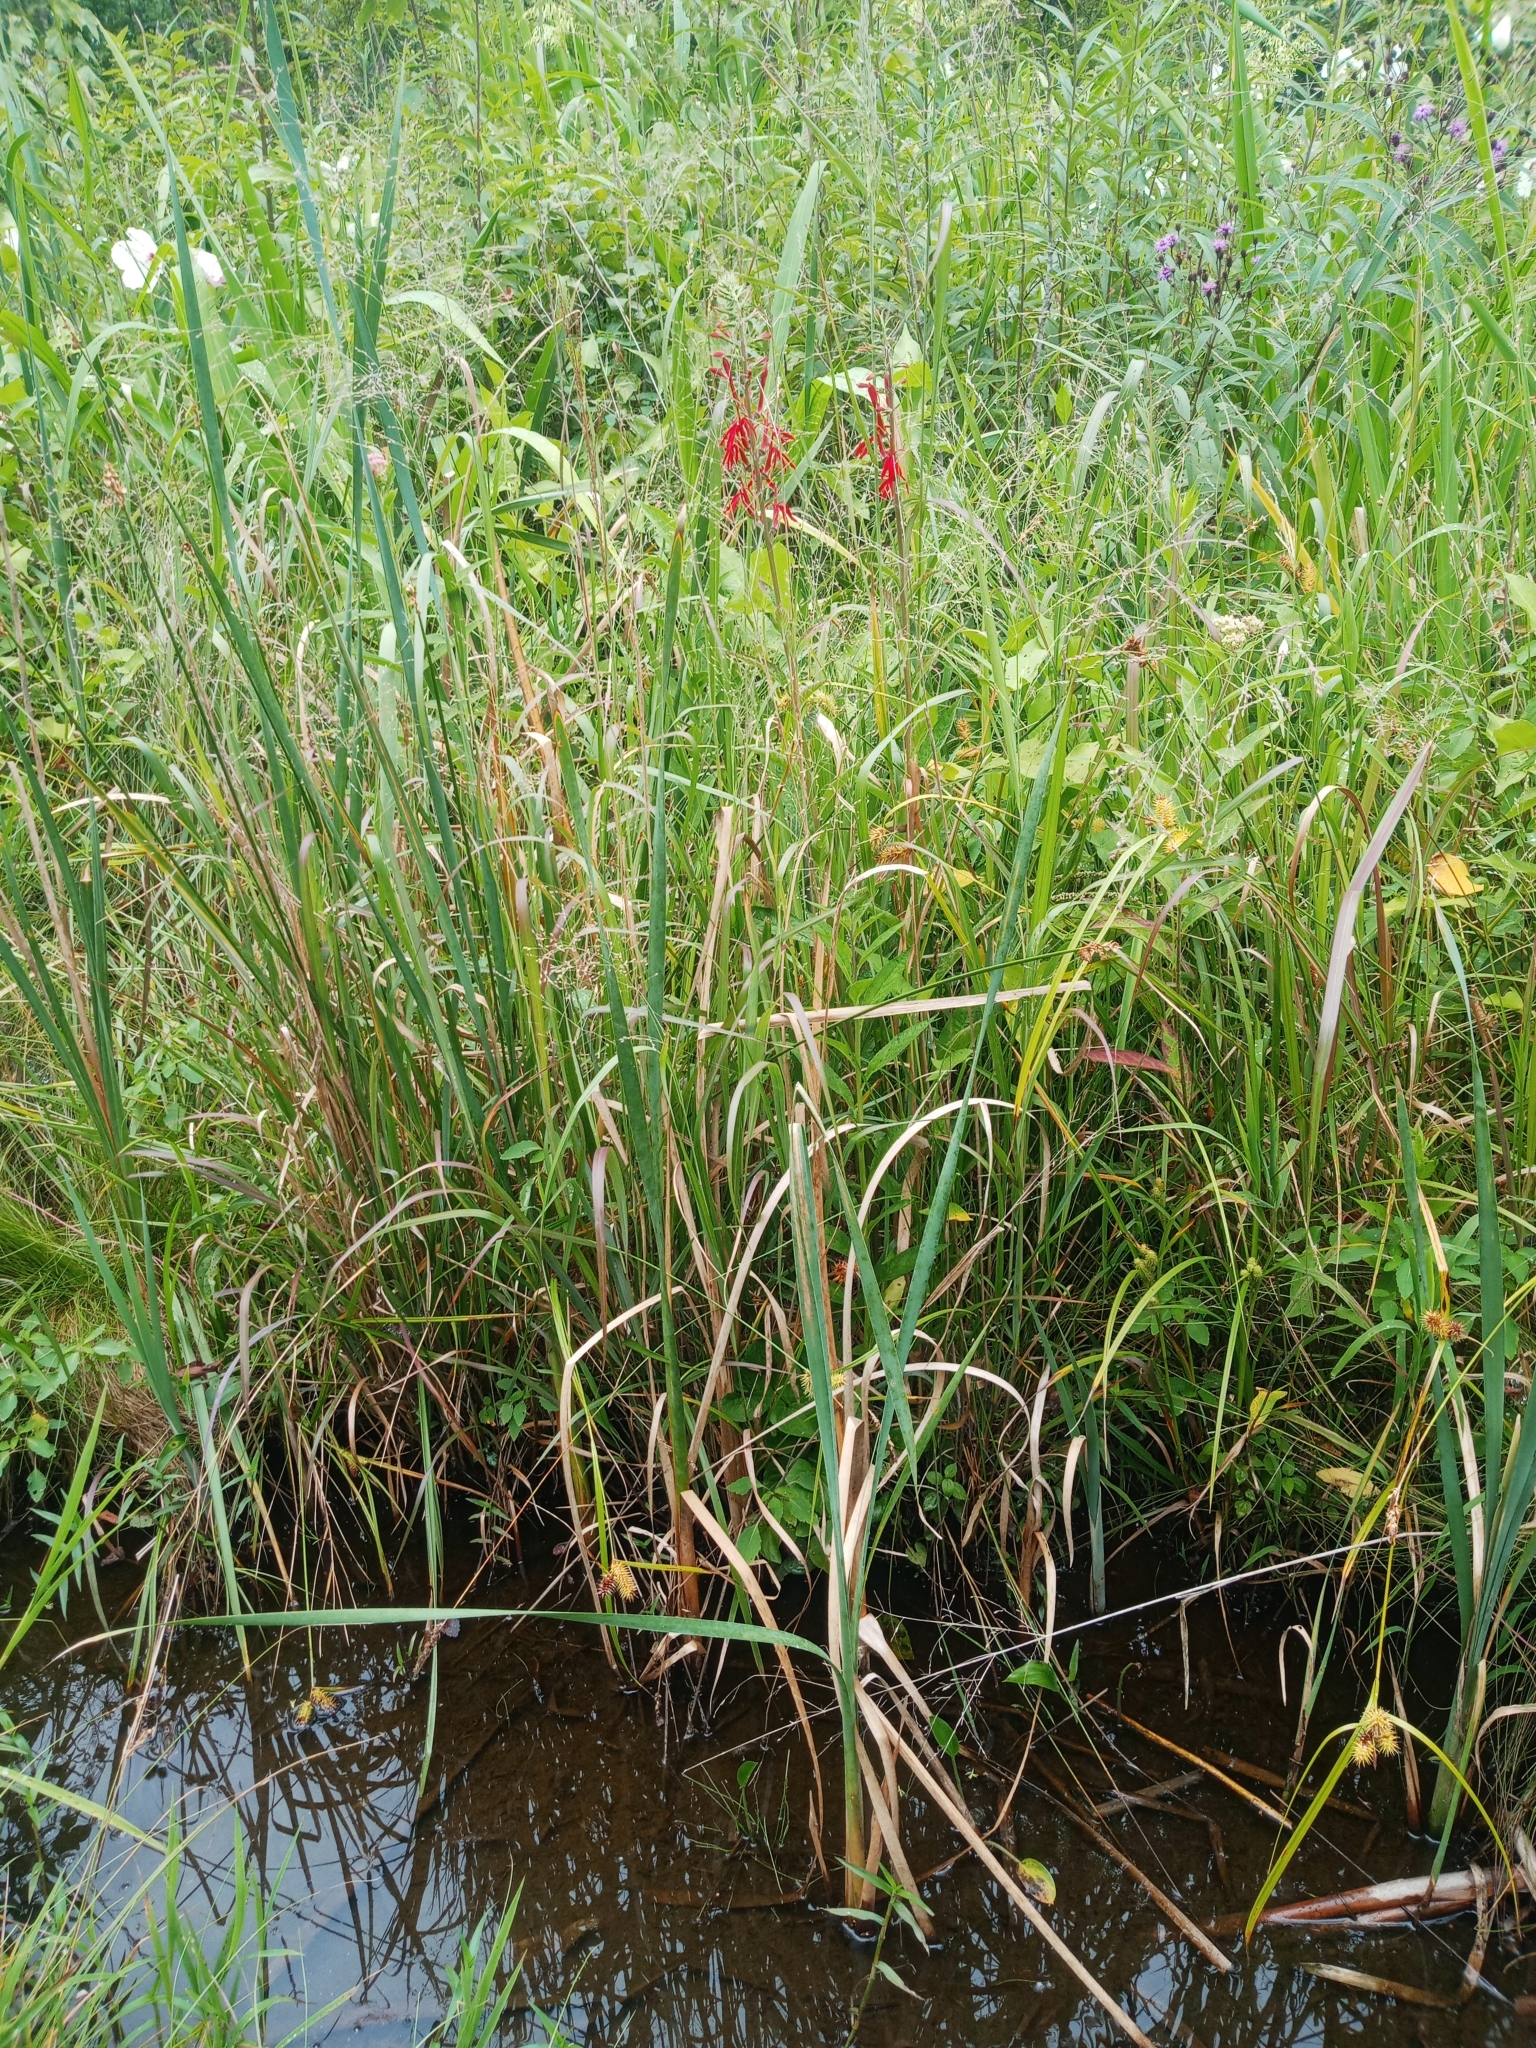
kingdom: Plantae
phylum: Tracheophyta
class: Magnoliopsida
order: Asterales
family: Campanulaceae
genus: Lobelia
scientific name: Lobelia cardinalis
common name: Cardinal flower
